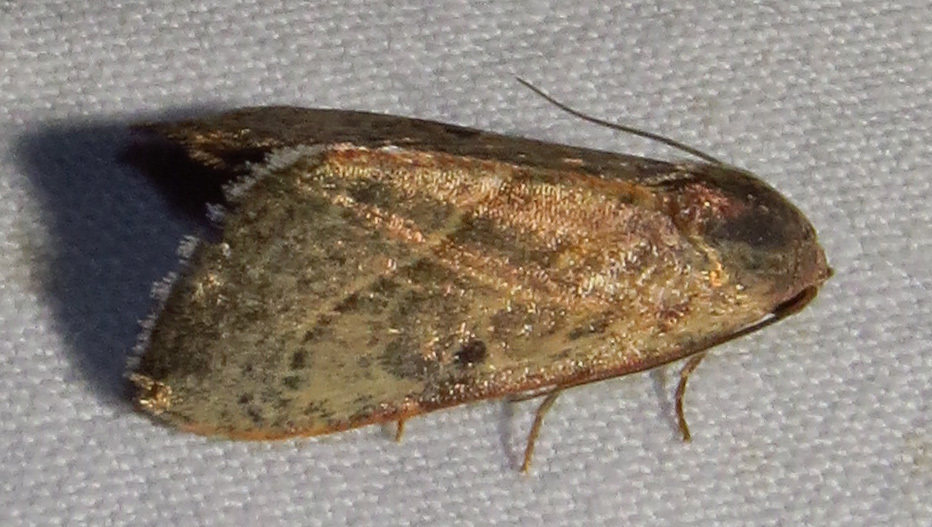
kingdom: Animalia
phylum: Arthropoda
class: Insecta
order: Lepidoptera
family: Noctuidae
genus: Galgula
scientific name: Galgula partita
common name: Wedgeling
